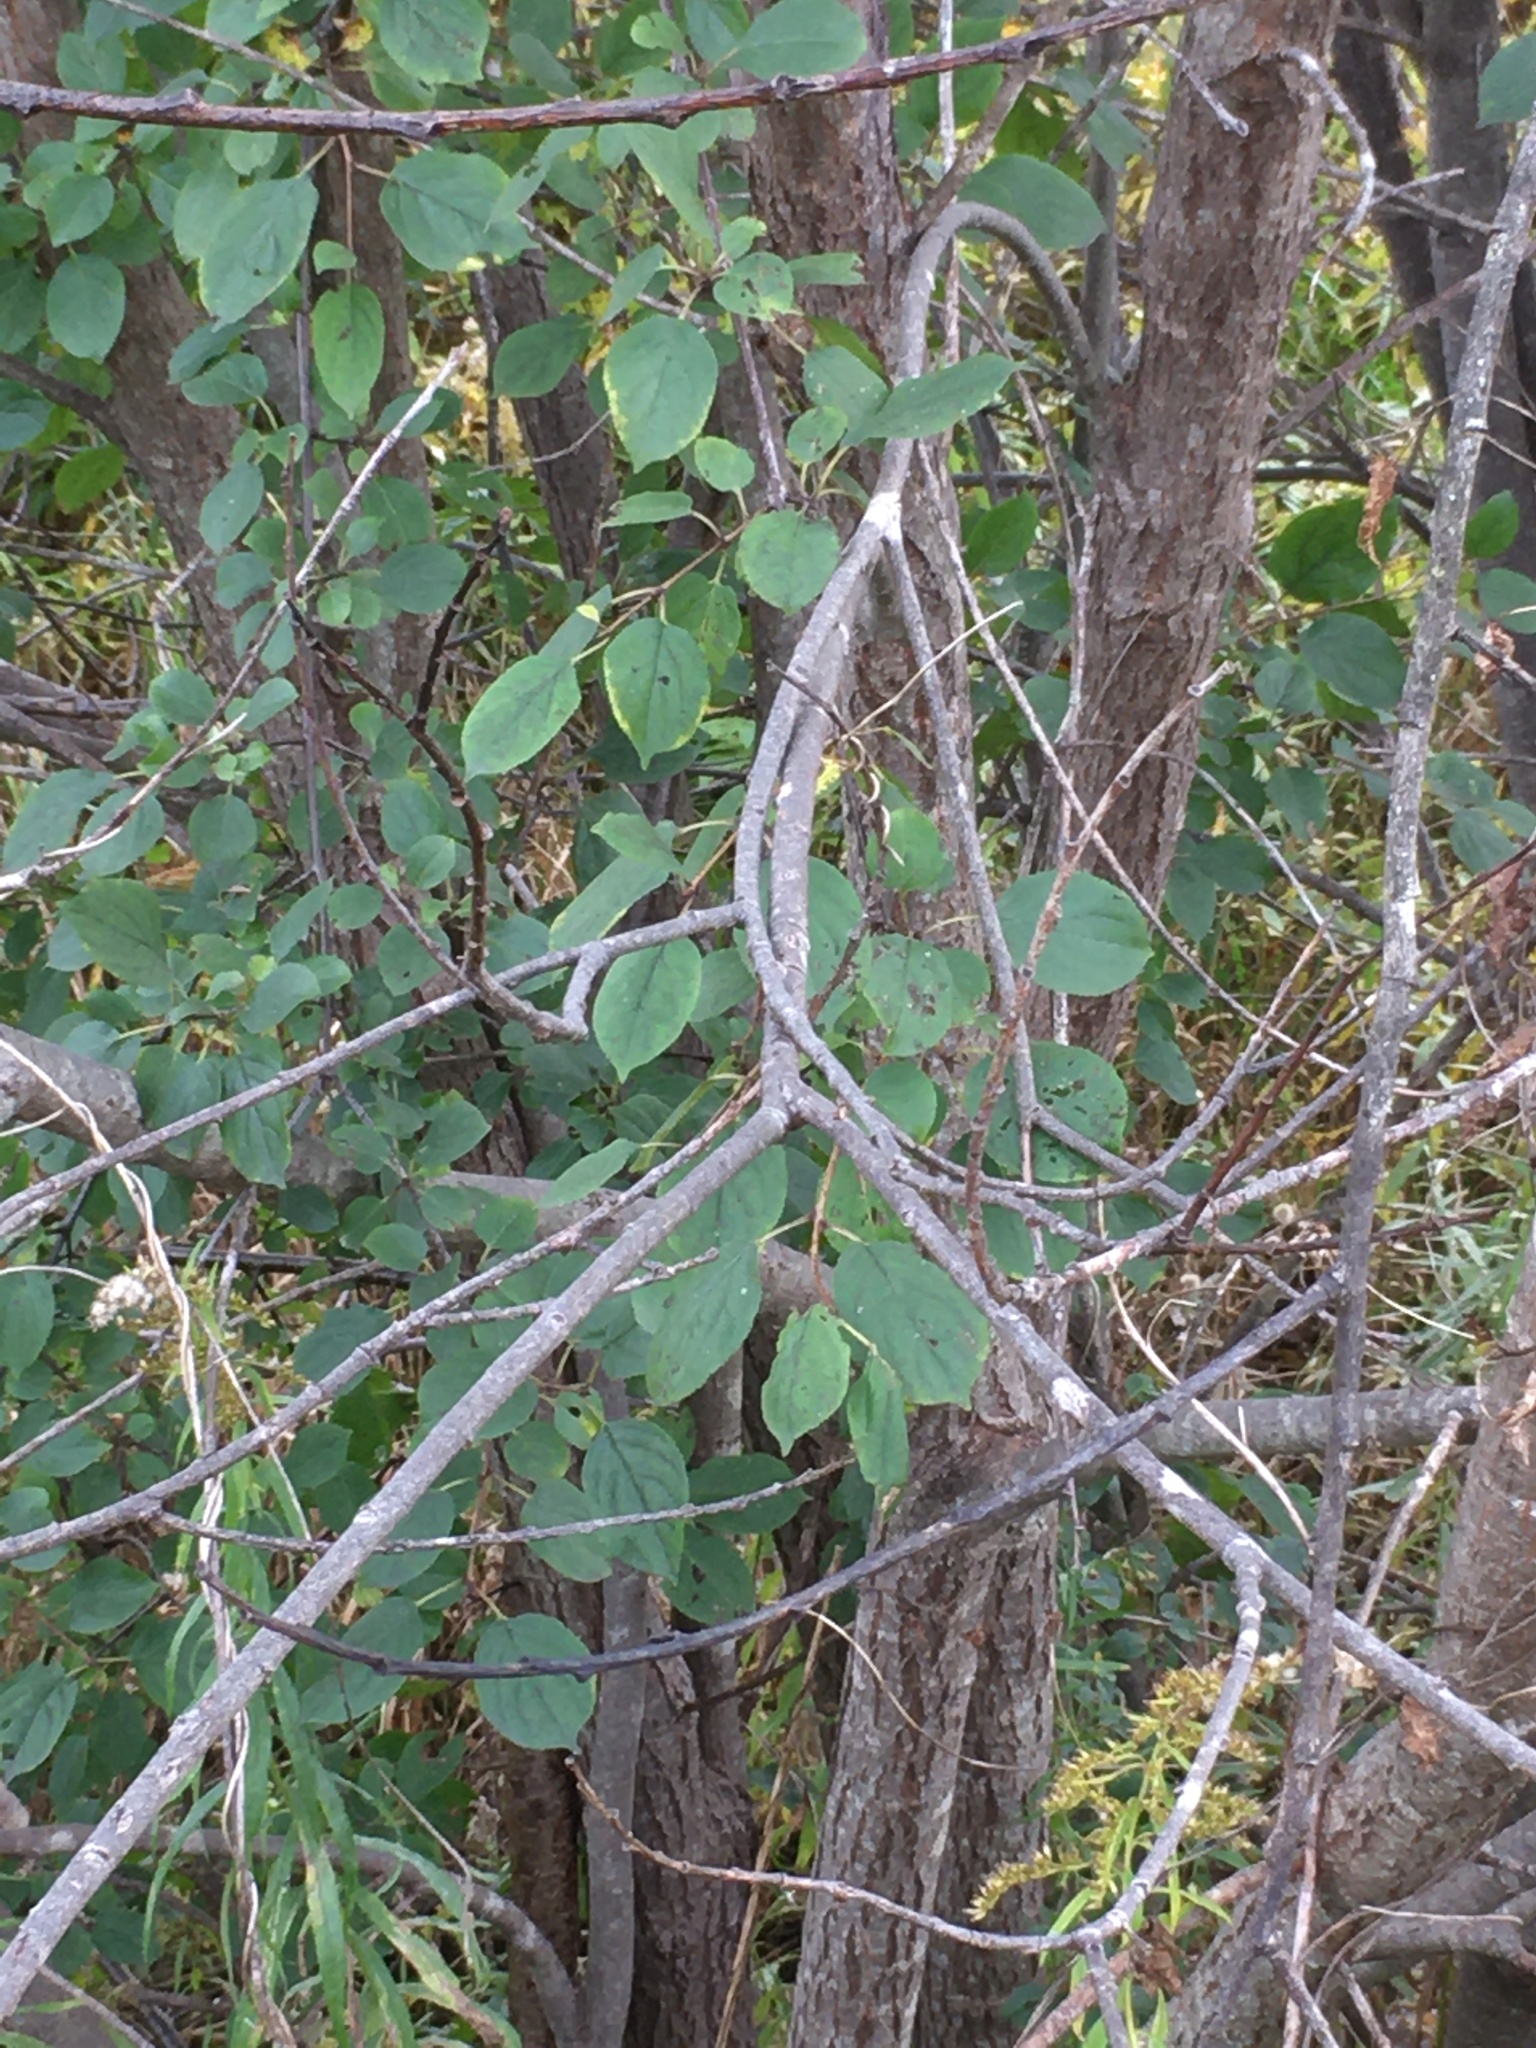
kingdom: Plantae
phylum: Tracheophyta
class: Magnoliopsida
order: Rosales
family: Rhamnaceae
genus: Rhamnus
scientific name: Rhamnus cathartica
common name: Common buckthorn
